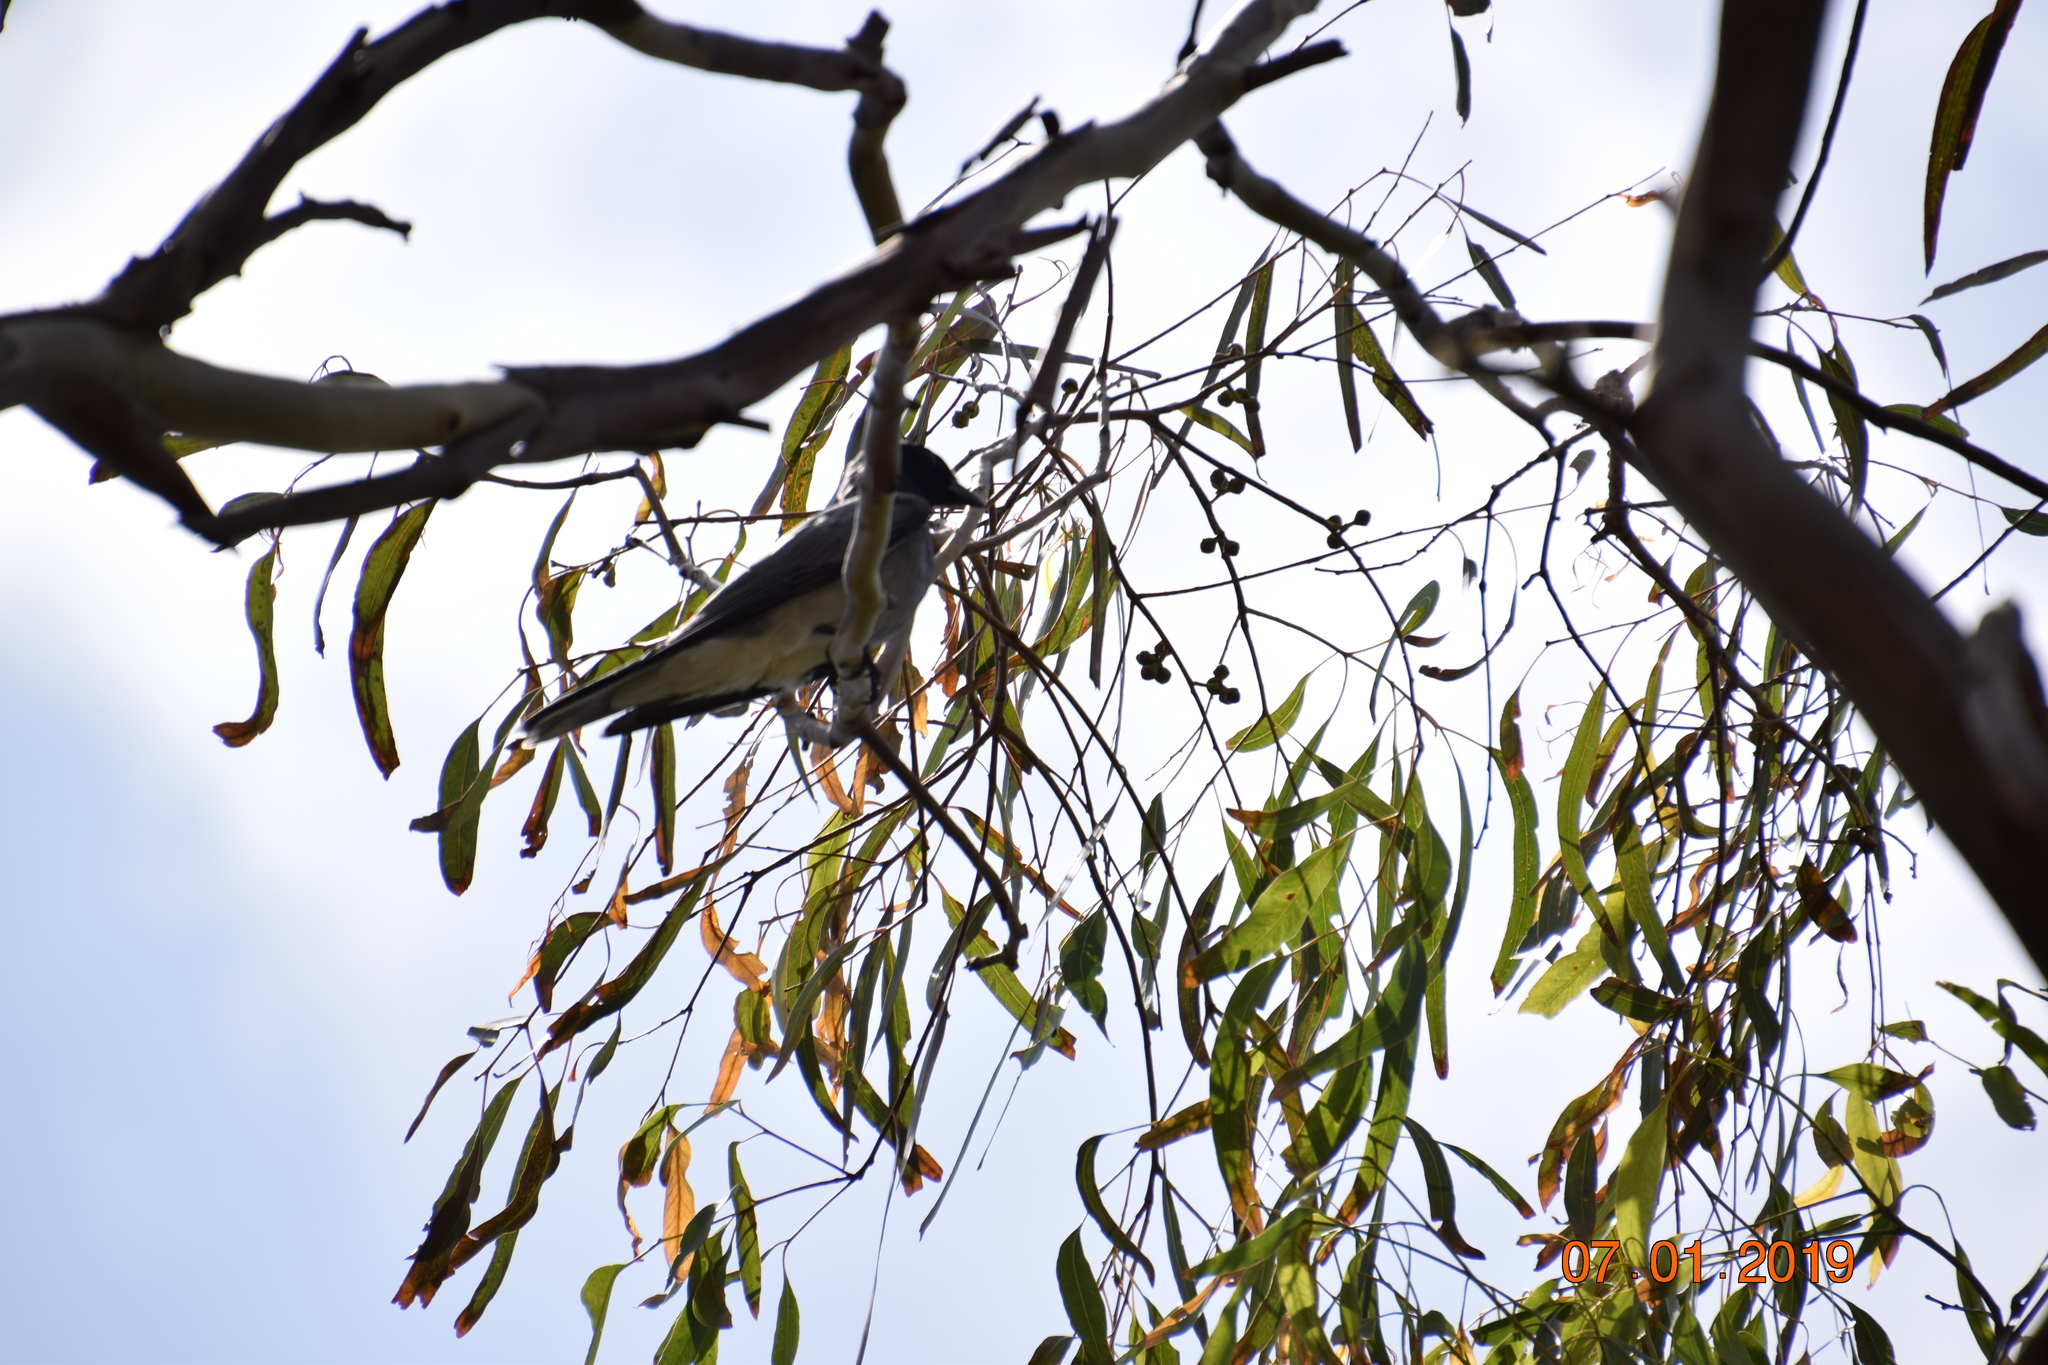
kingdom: Animalia
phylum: Chordata
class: Aves
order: Passeriformes
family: Campephagidae
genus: Coracina
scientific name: Coracina novaehollandiae
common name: Black-faced cuckooshrike
